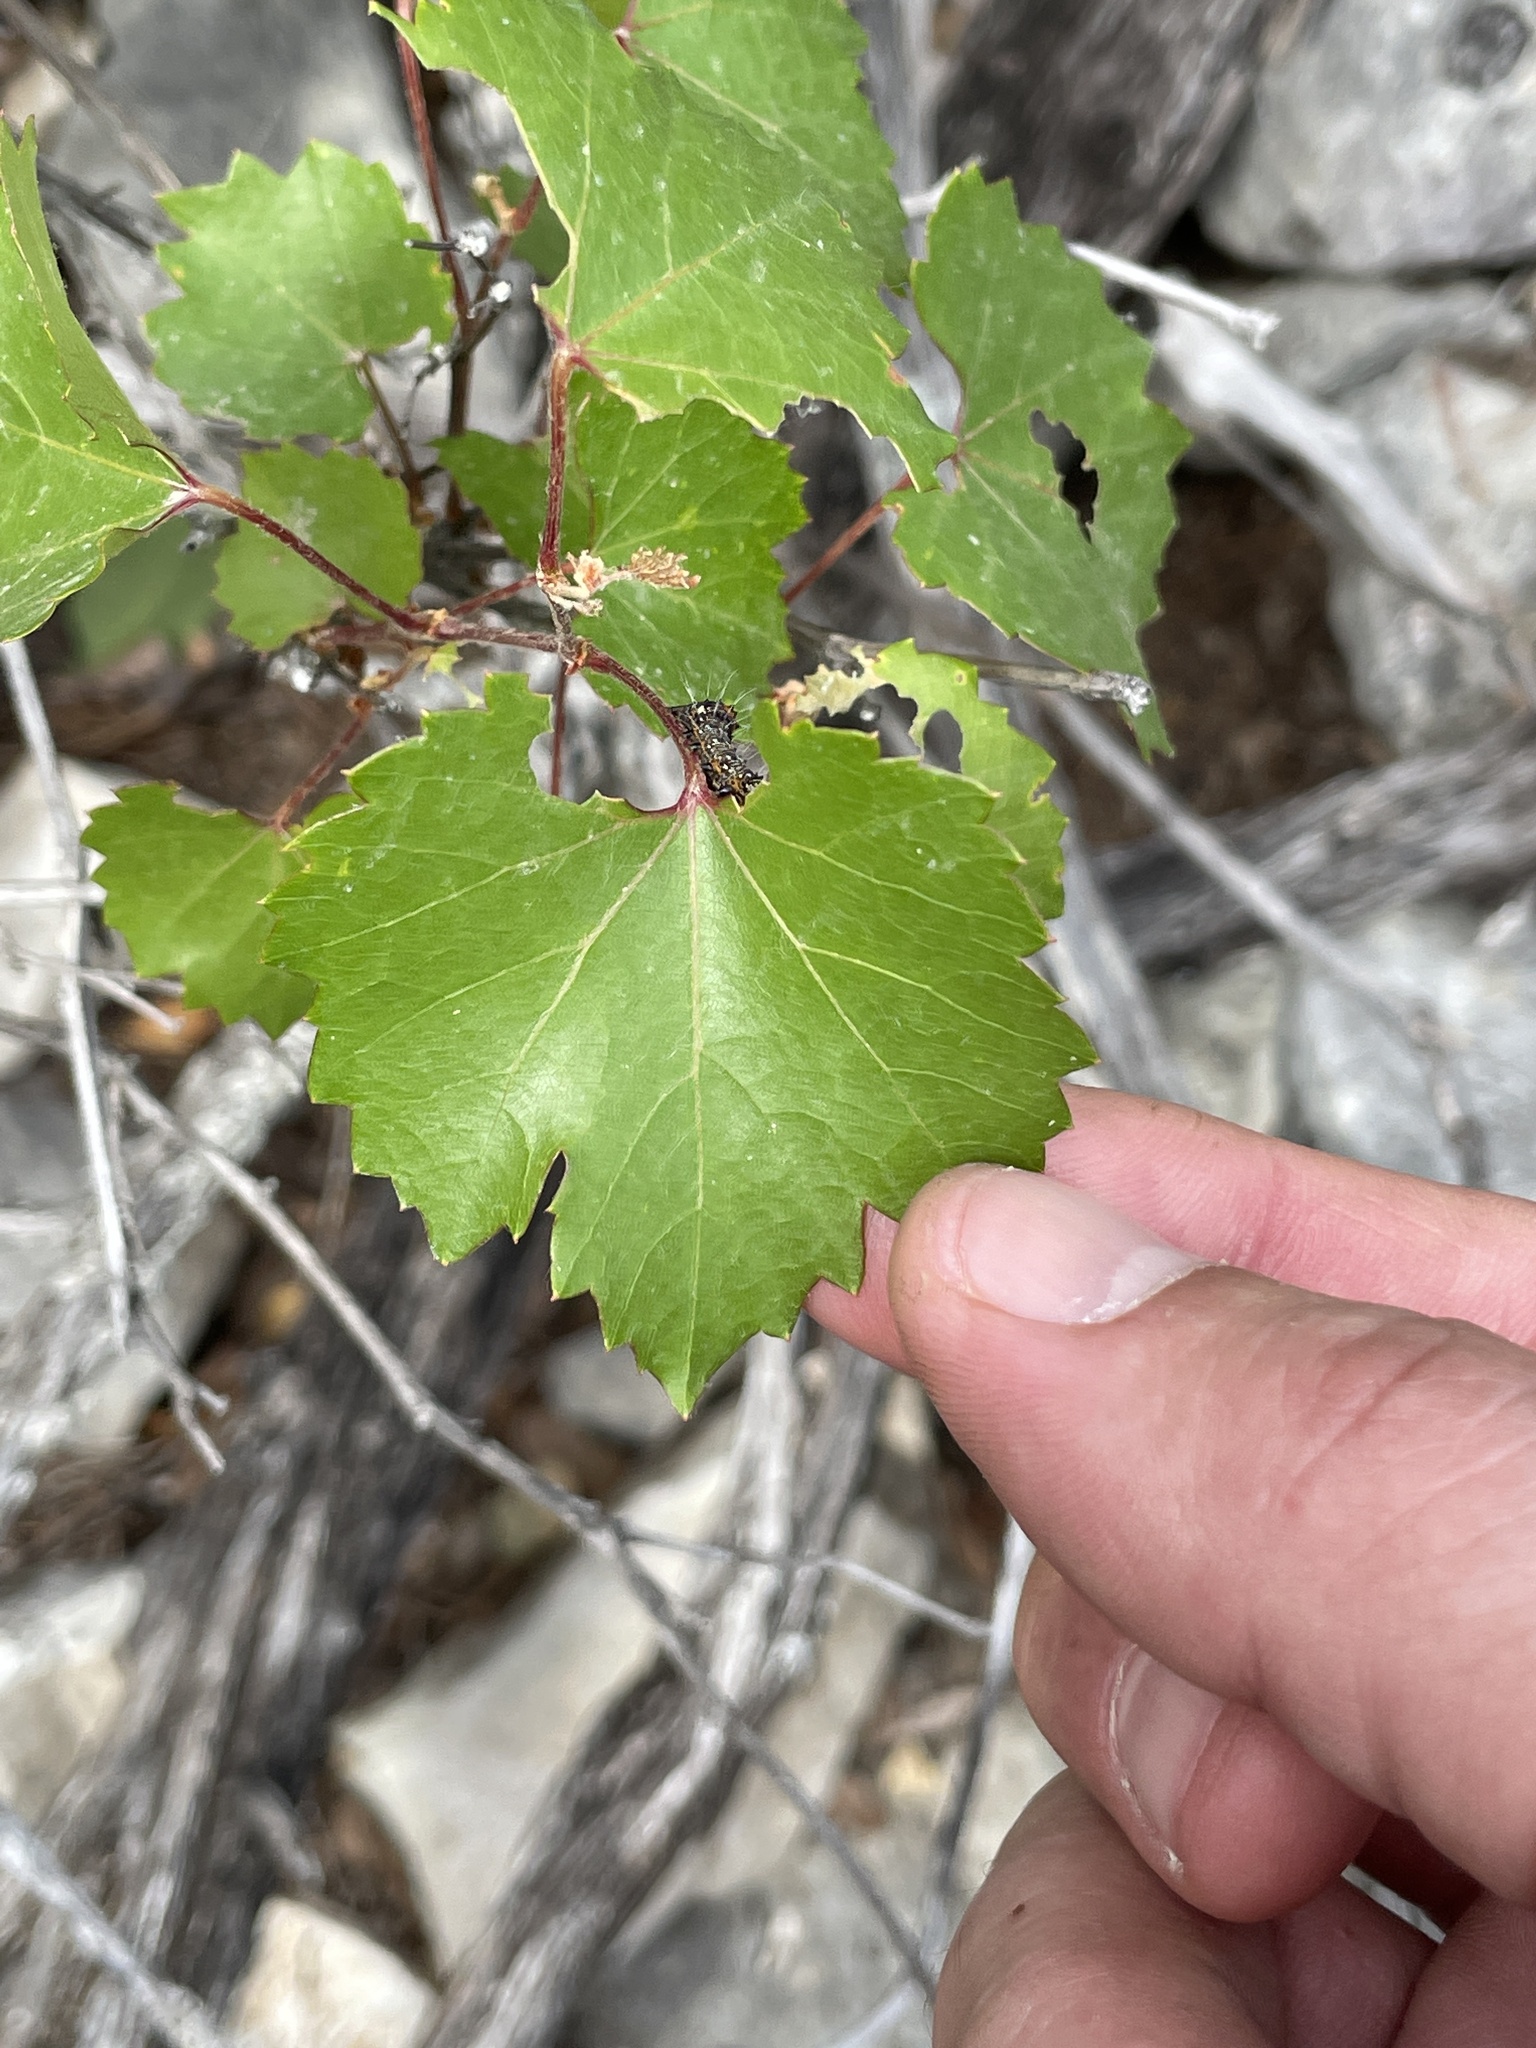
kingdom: Plantae
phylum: Tracheophyta
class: Magnoliopsida
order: Vitales
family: Vitaceae
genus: Vitis
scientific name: Vitis monticola
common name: Mountain grape
